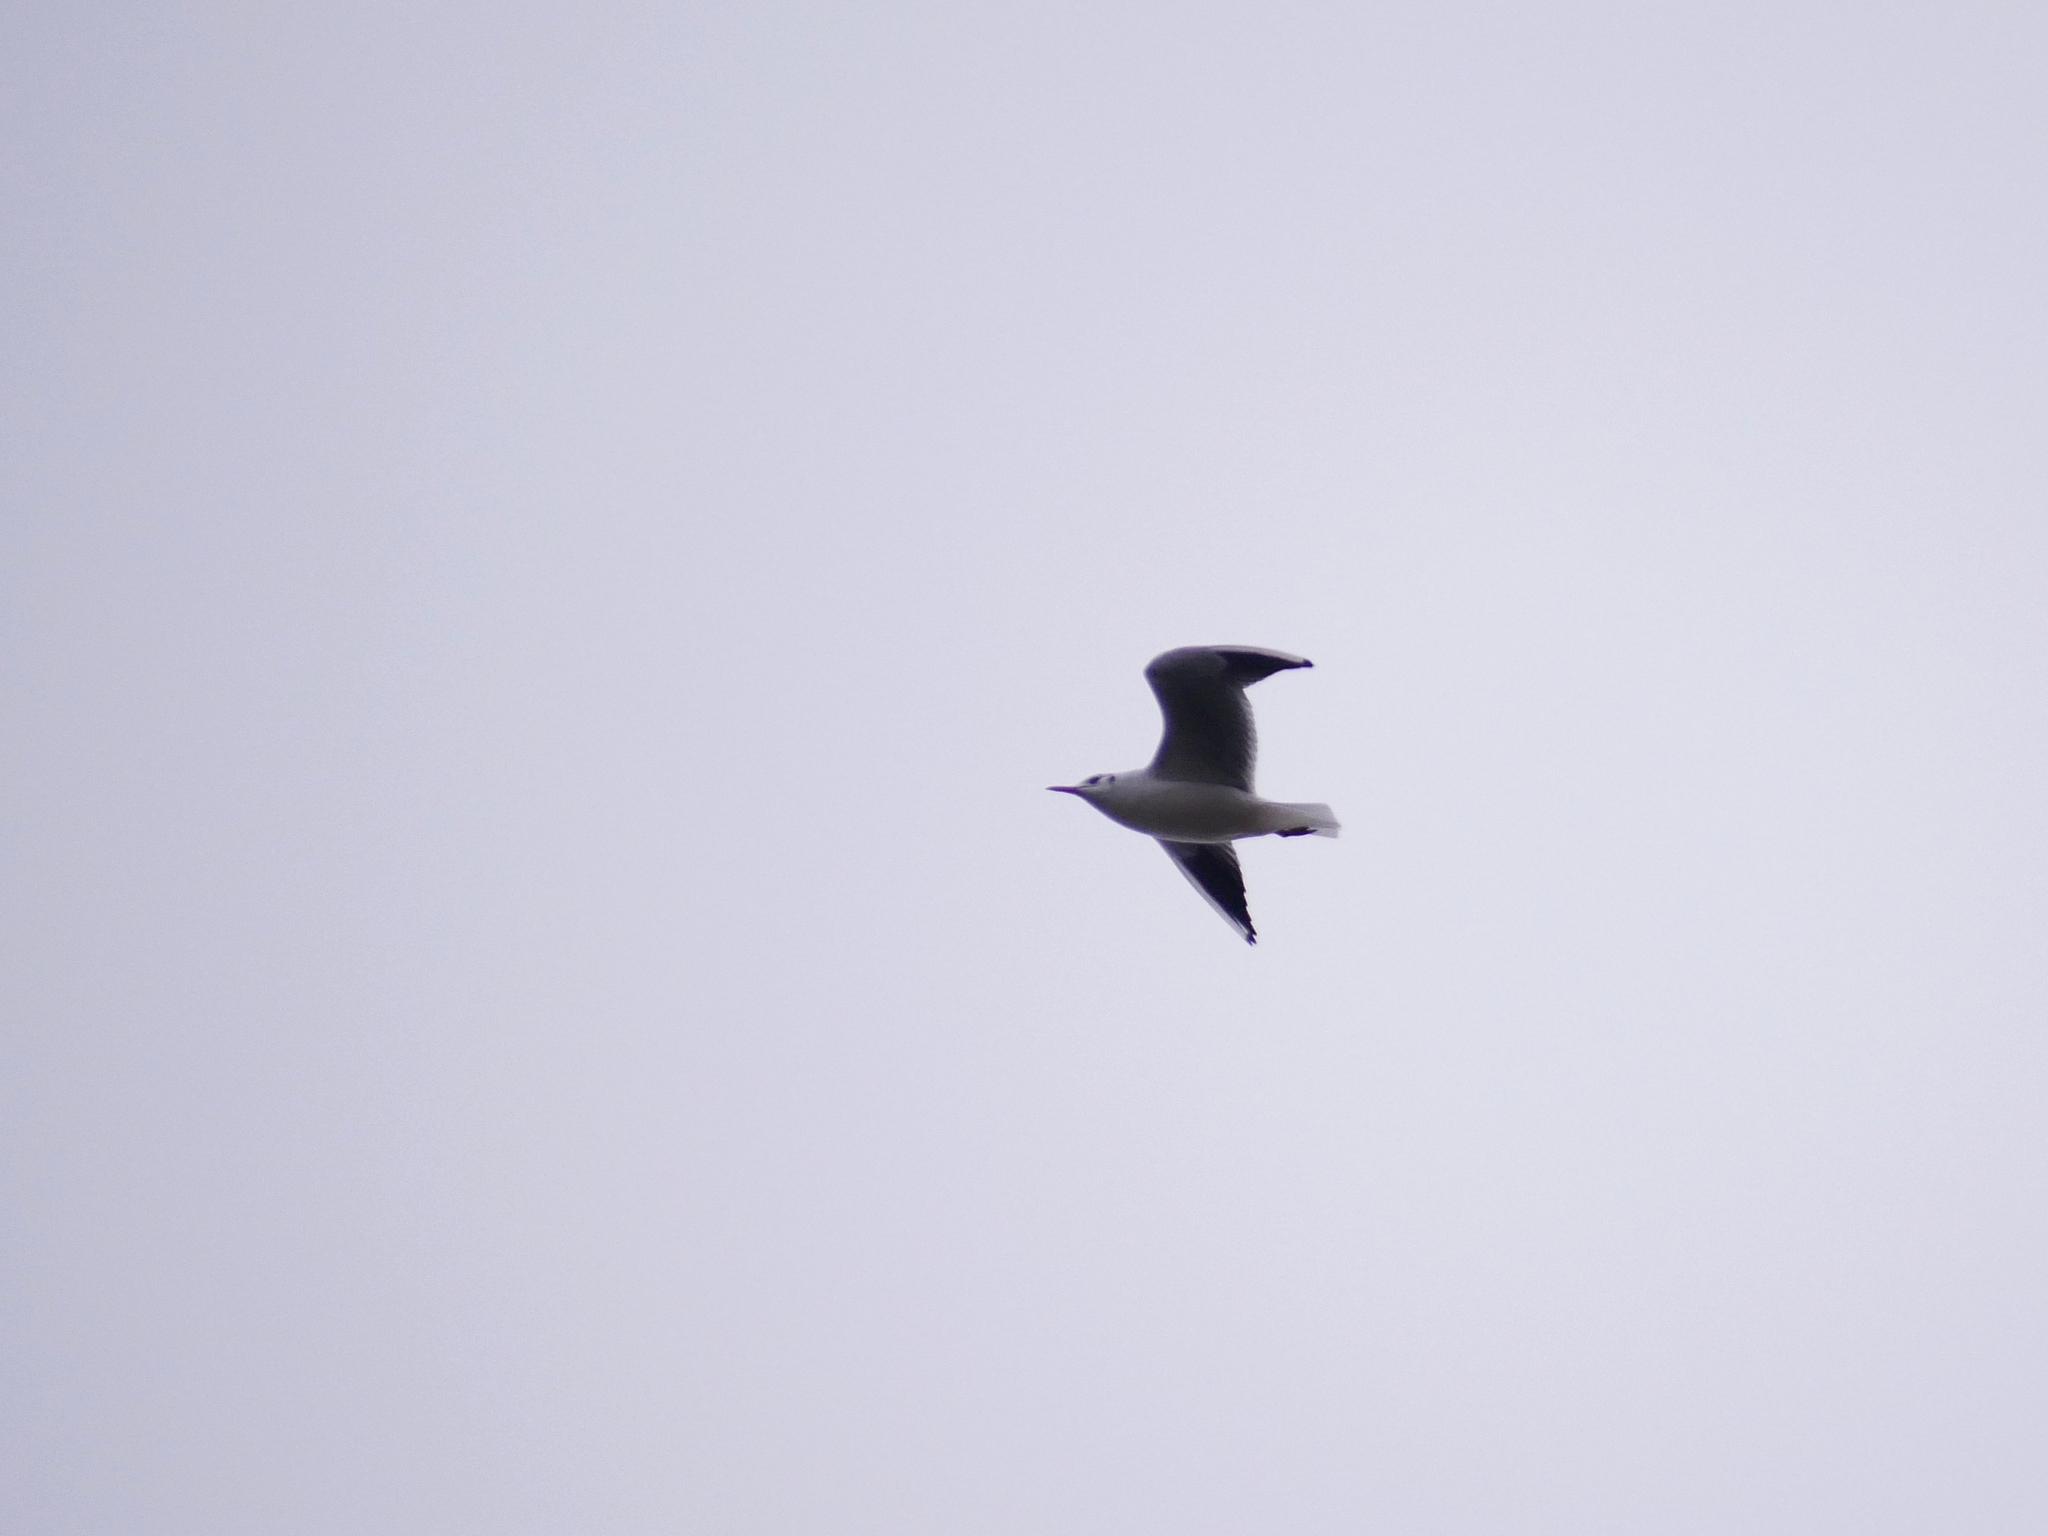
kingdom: Animalia
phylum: Chordata
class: Aves
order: Charadriiformes
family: Laridae
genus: Chroicocephalus
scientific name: Chroicocephalus ridibundus
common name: Black-headed gull
